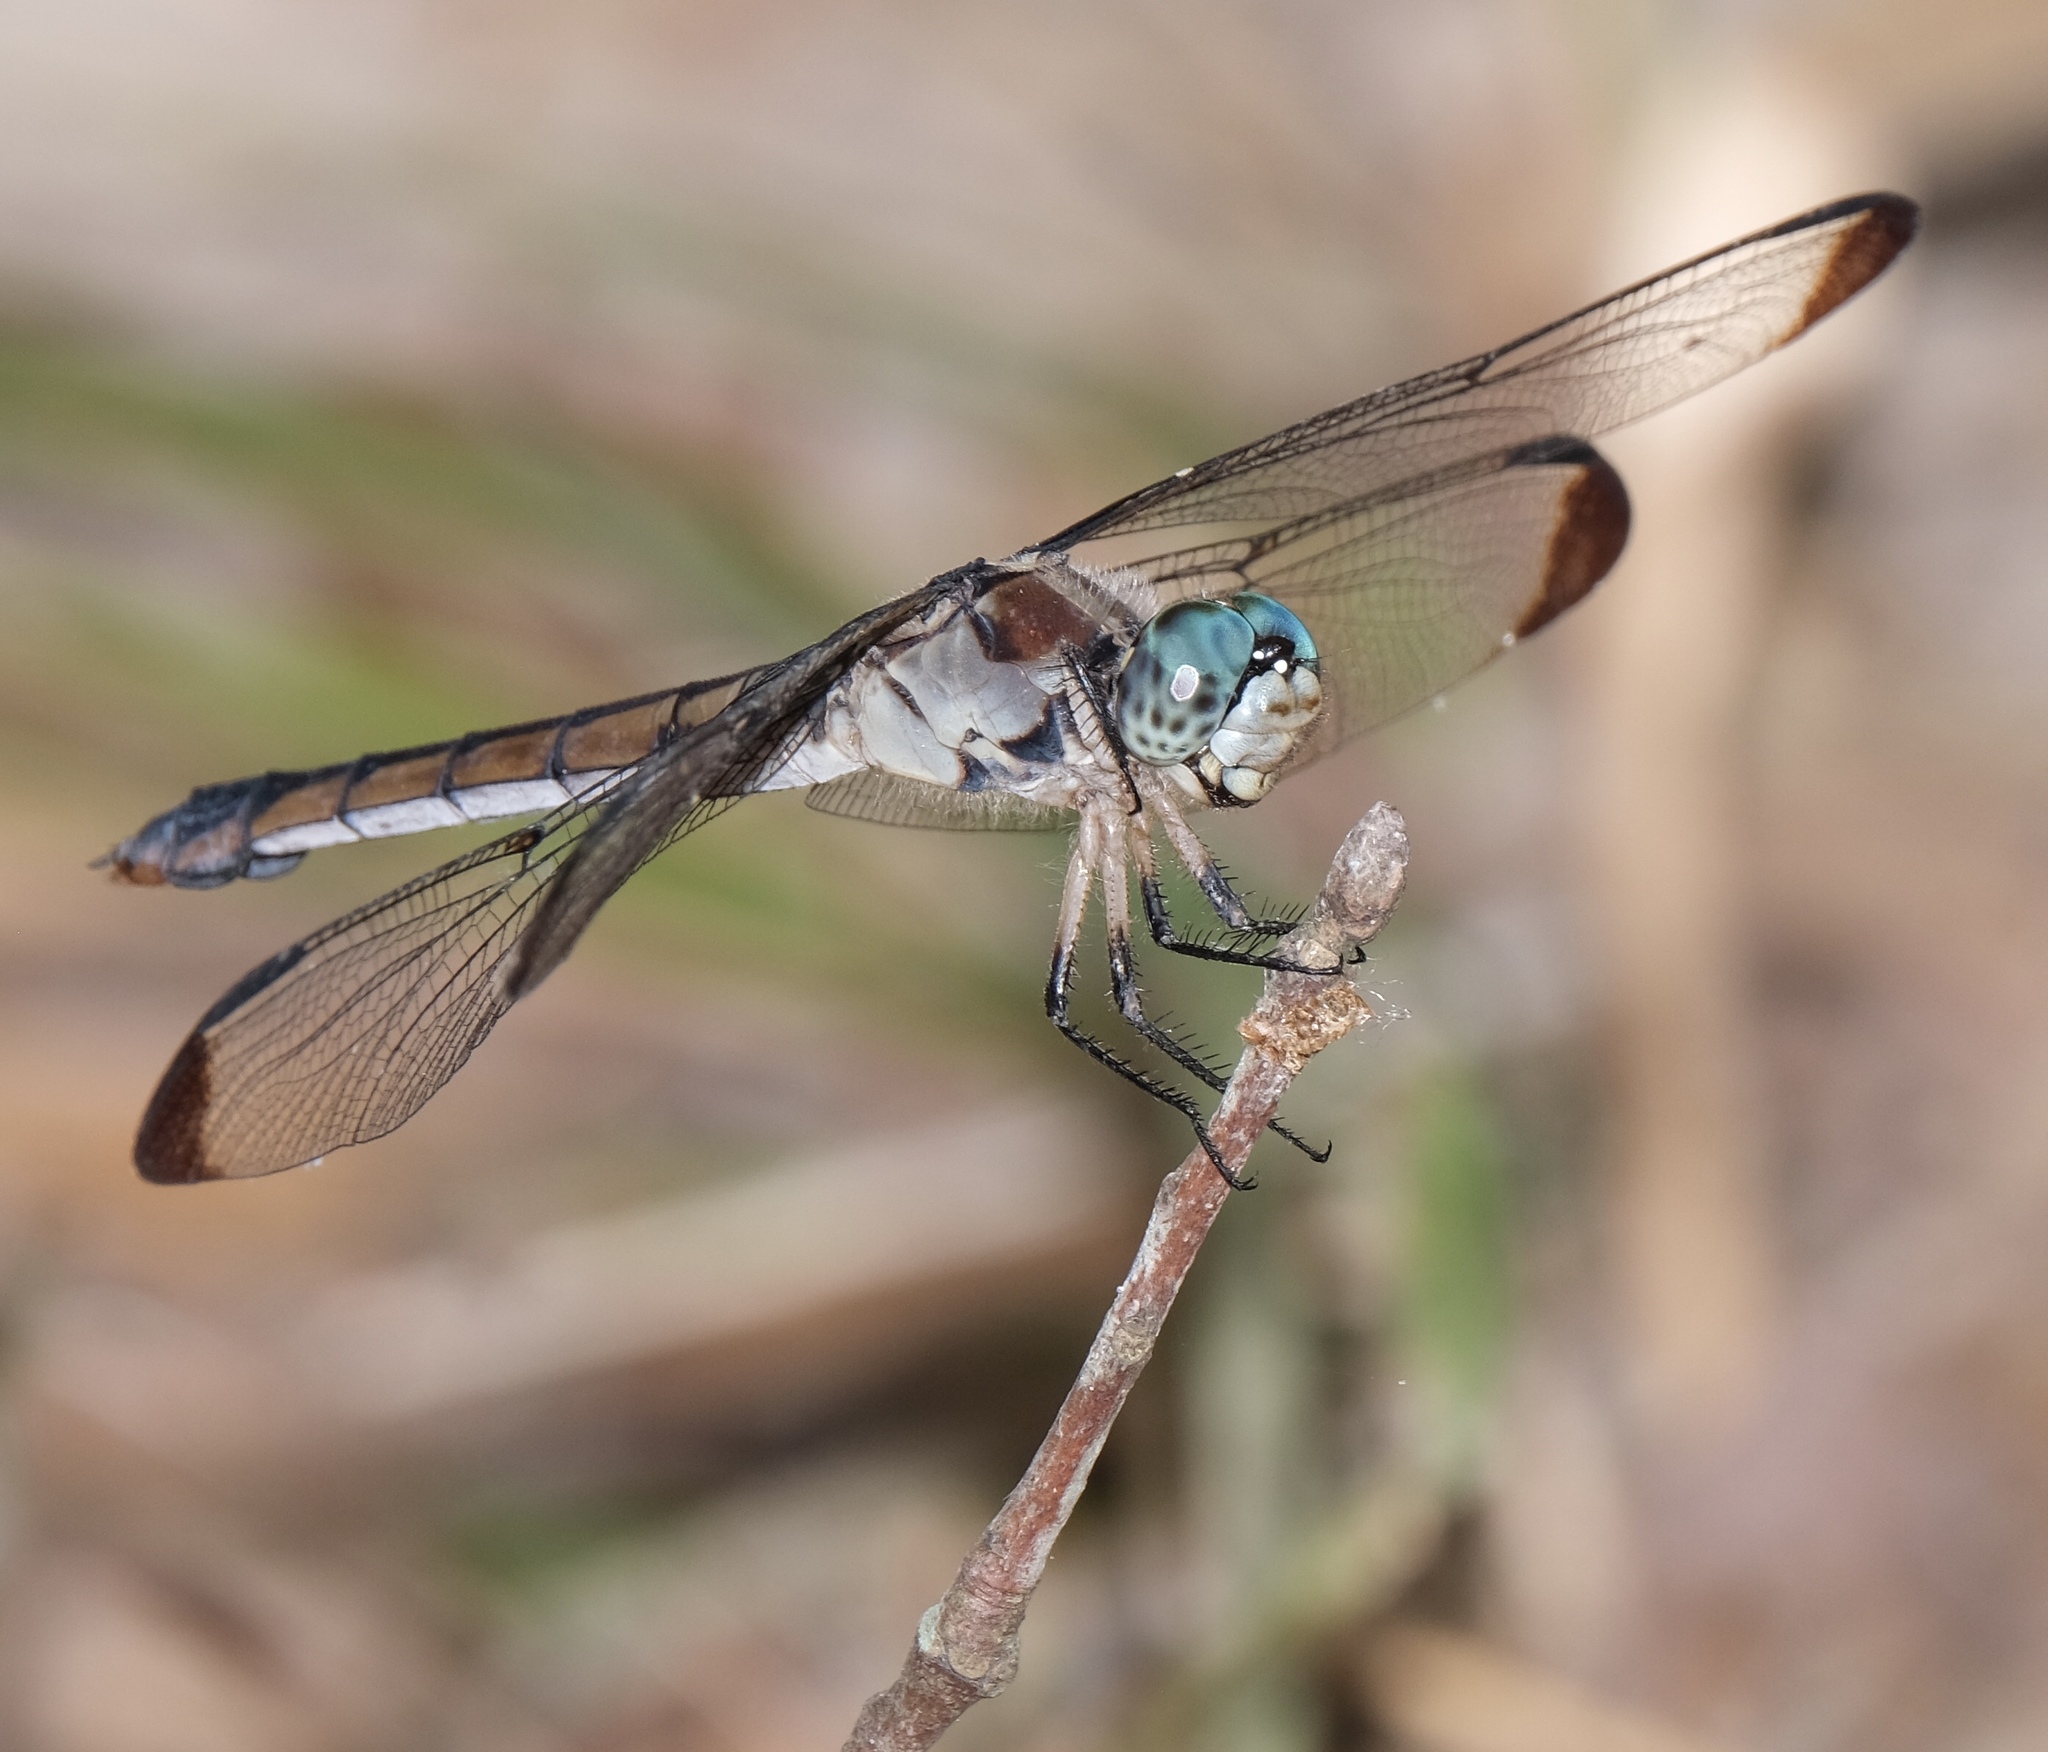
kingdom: Animalia
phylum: Arthropoda
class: Insecta
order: Odonata
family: Libellulidae
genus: Libellula
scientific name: Libellula vibrans
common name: Great blue skimmer
